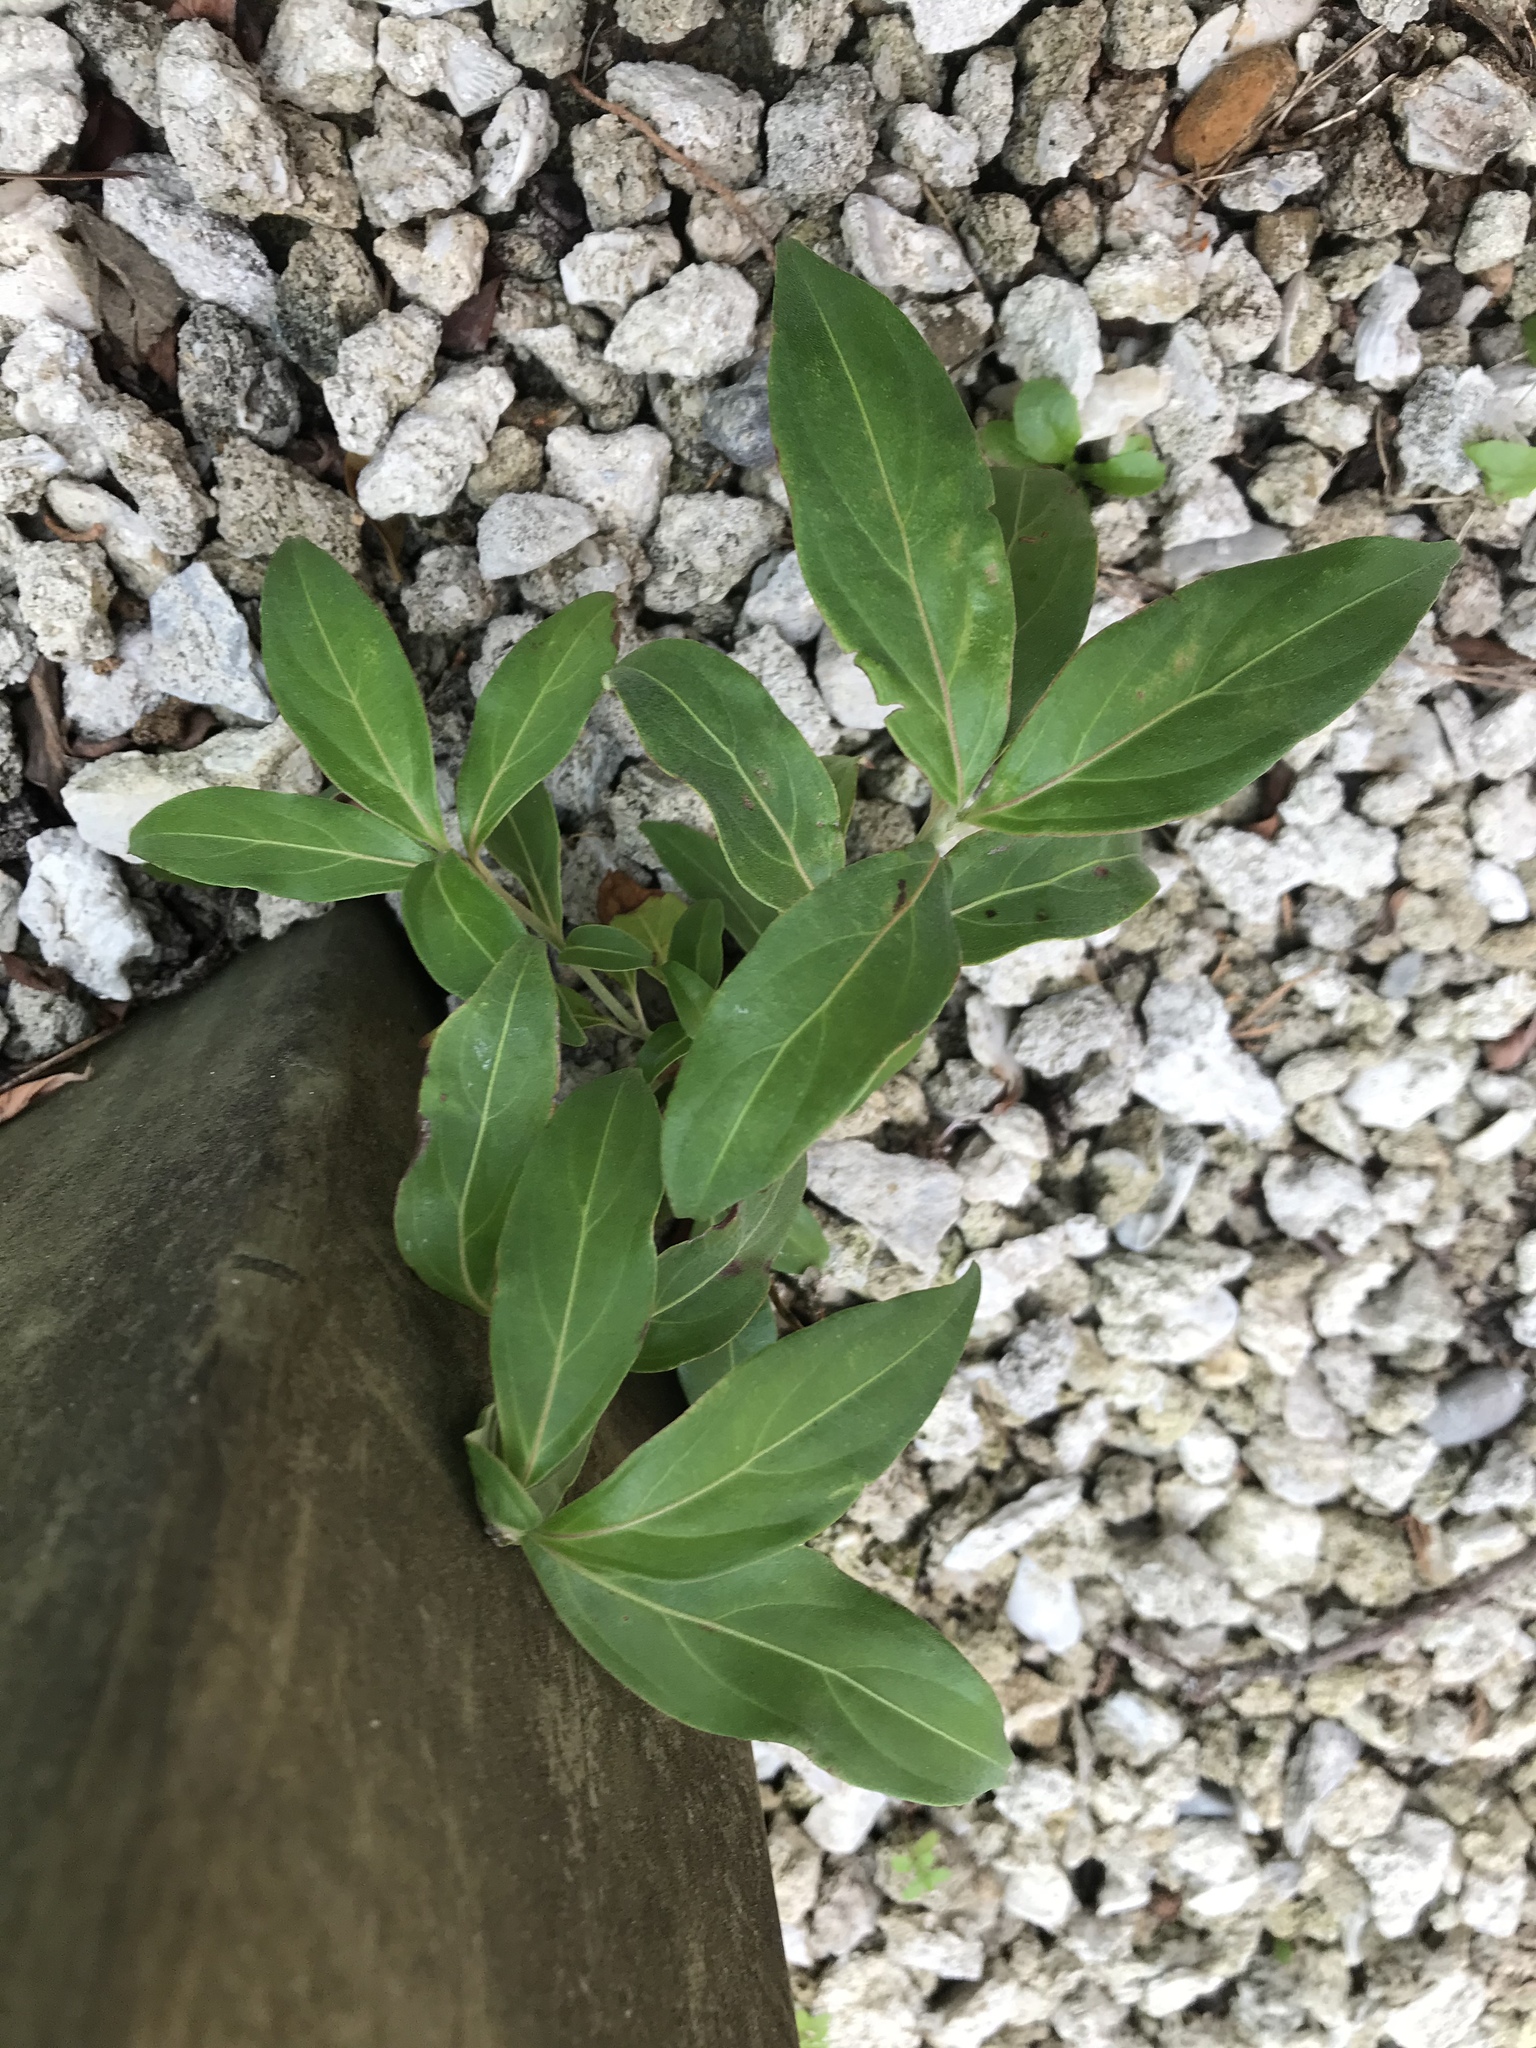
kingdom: Plantae
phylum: Tracheophyta
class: Magnoliopsida
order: Cornales
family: Cornaceae
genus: Cornus
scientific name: Cornus capitata
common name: Bentham's cornel
